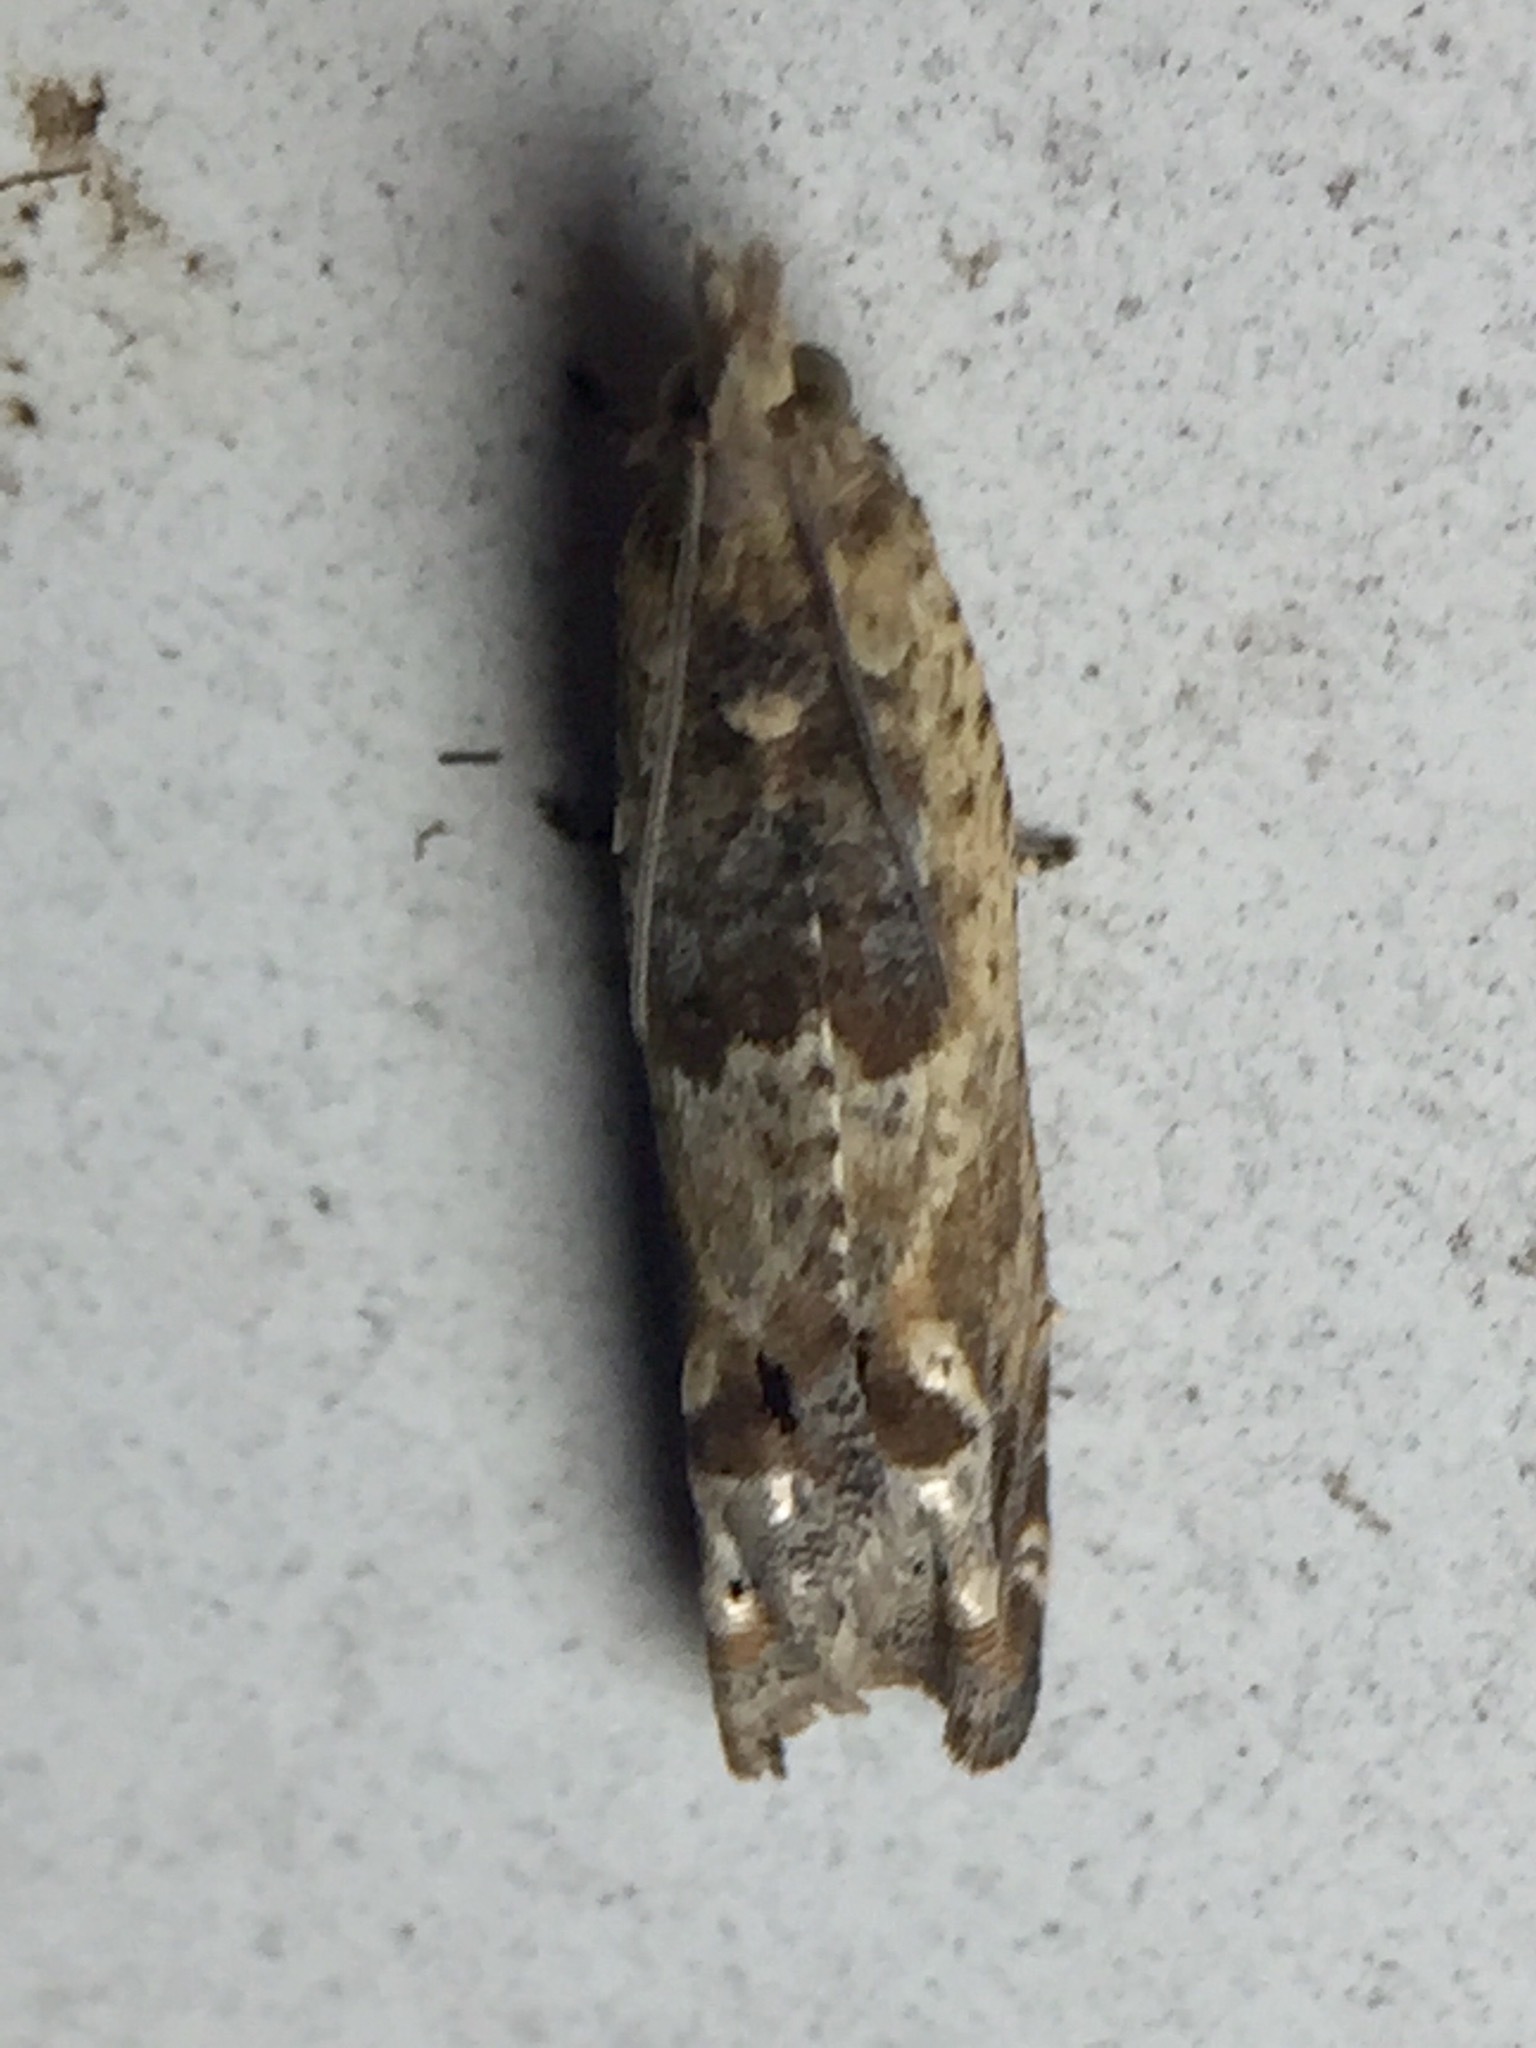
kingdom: Animalia
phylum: Arthropoda
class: Insecta
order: Lepidoptera
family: Tortricidae
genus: Crocidosema
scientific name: Crocidosema plebejana
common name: Southern bell
